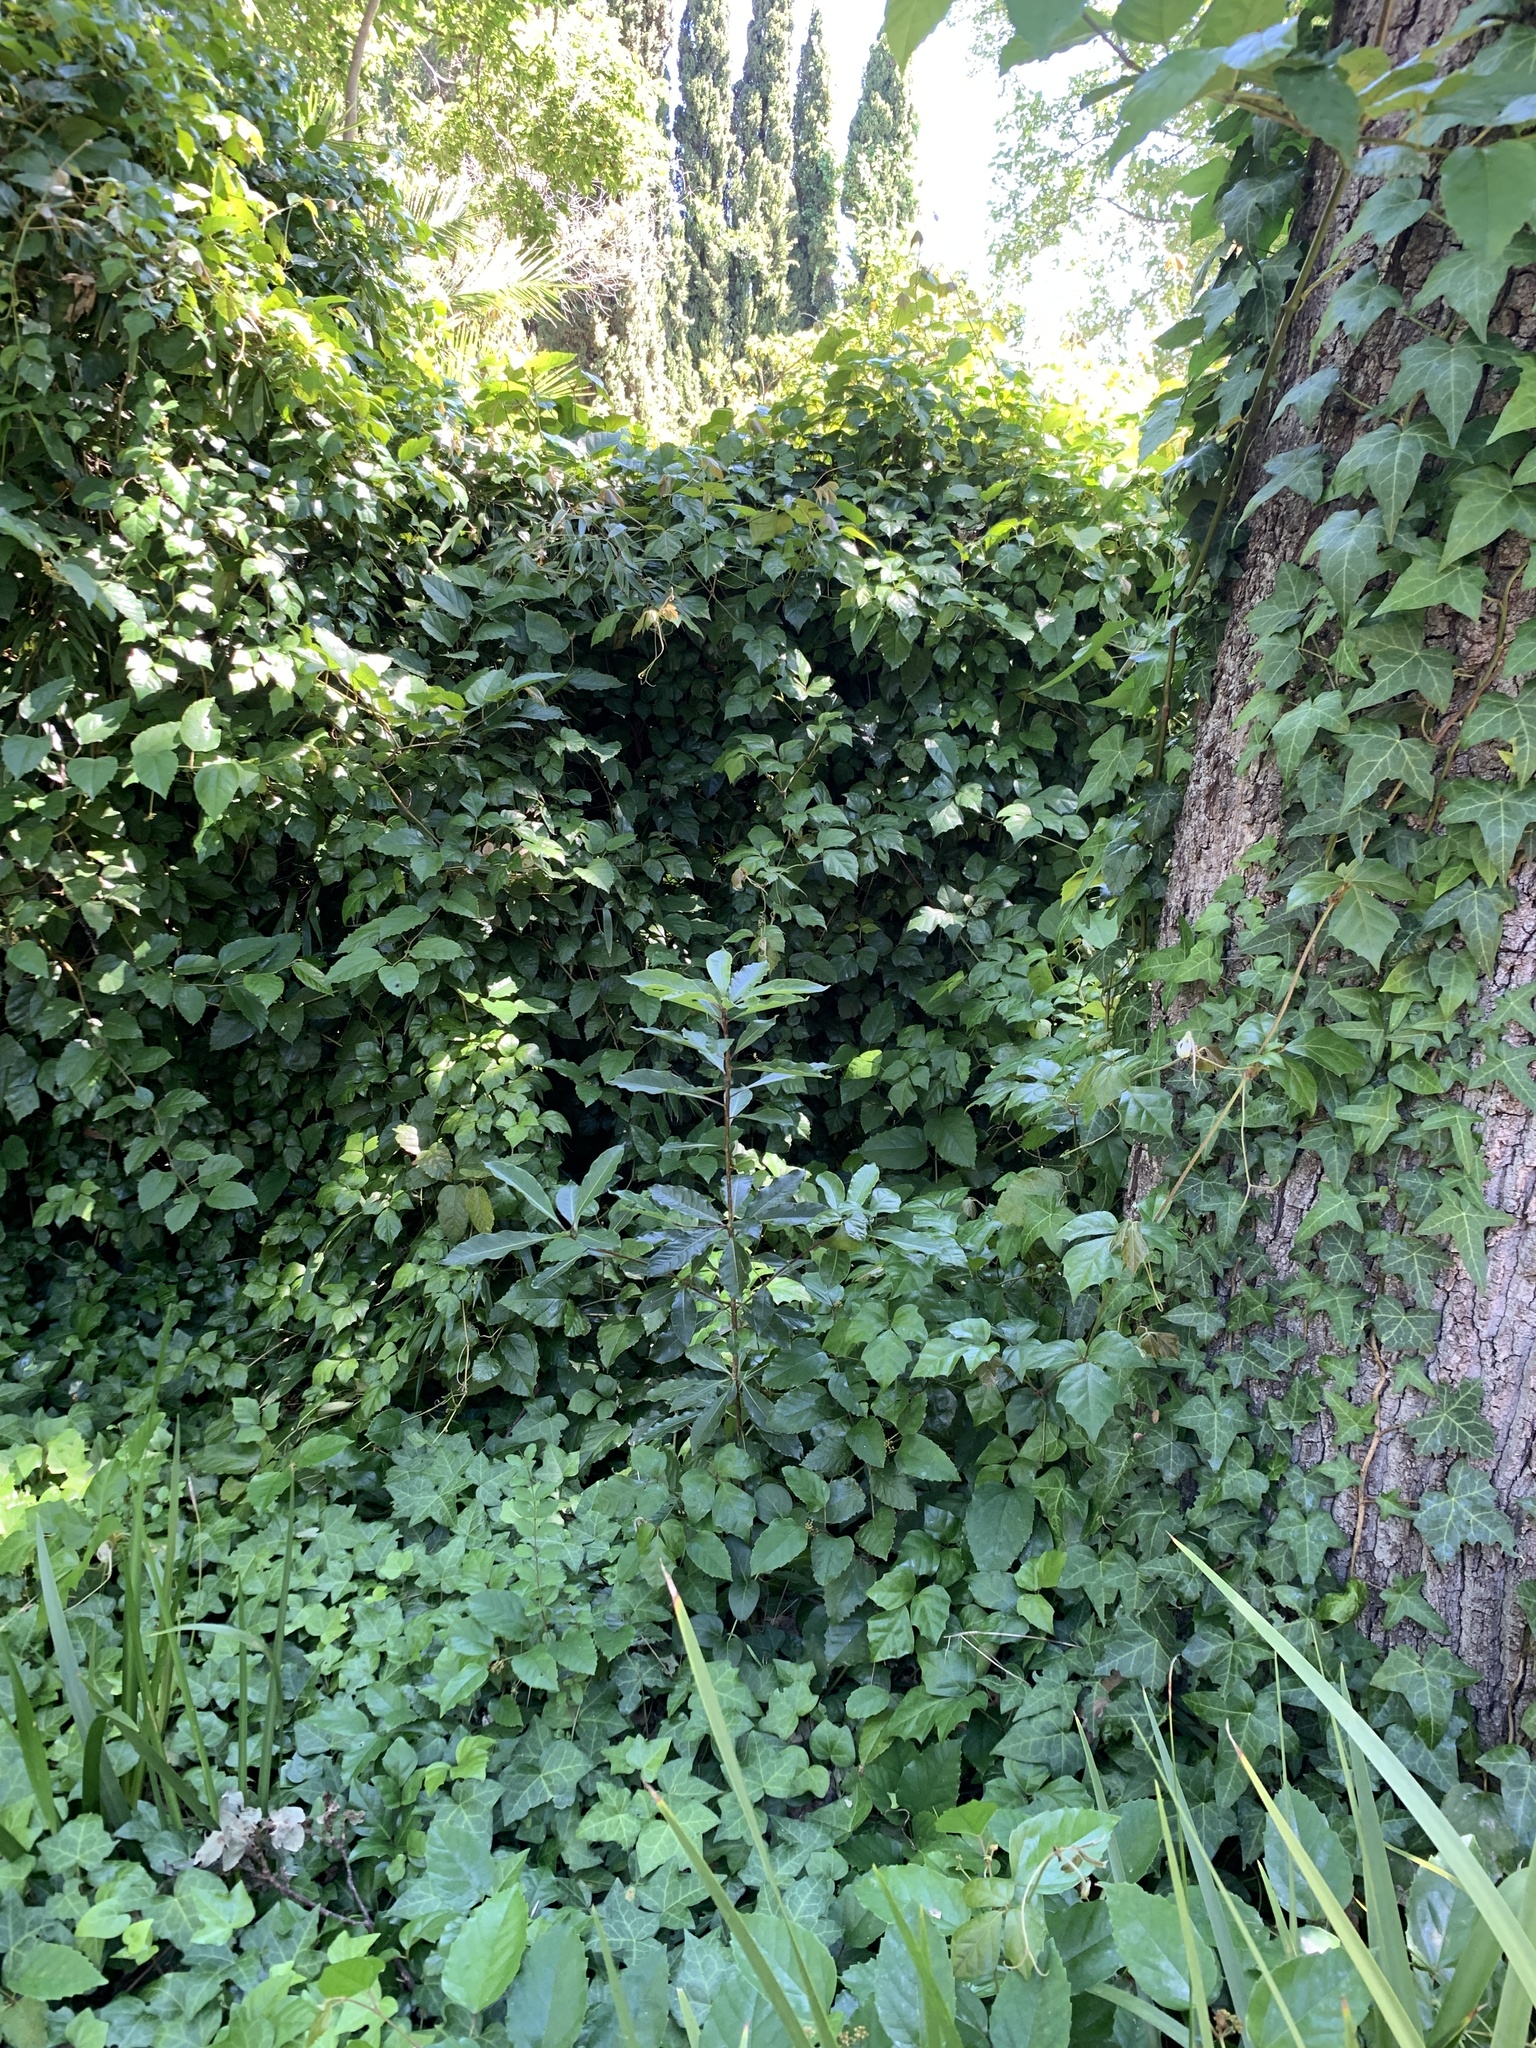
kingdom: Plantae
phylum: Tracheophyta
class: Magnoliopsida
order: Apiales
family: Pittosporaceae
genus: Pittosporum
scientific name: Pittosporum undulatum
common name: Australian cheesewood
